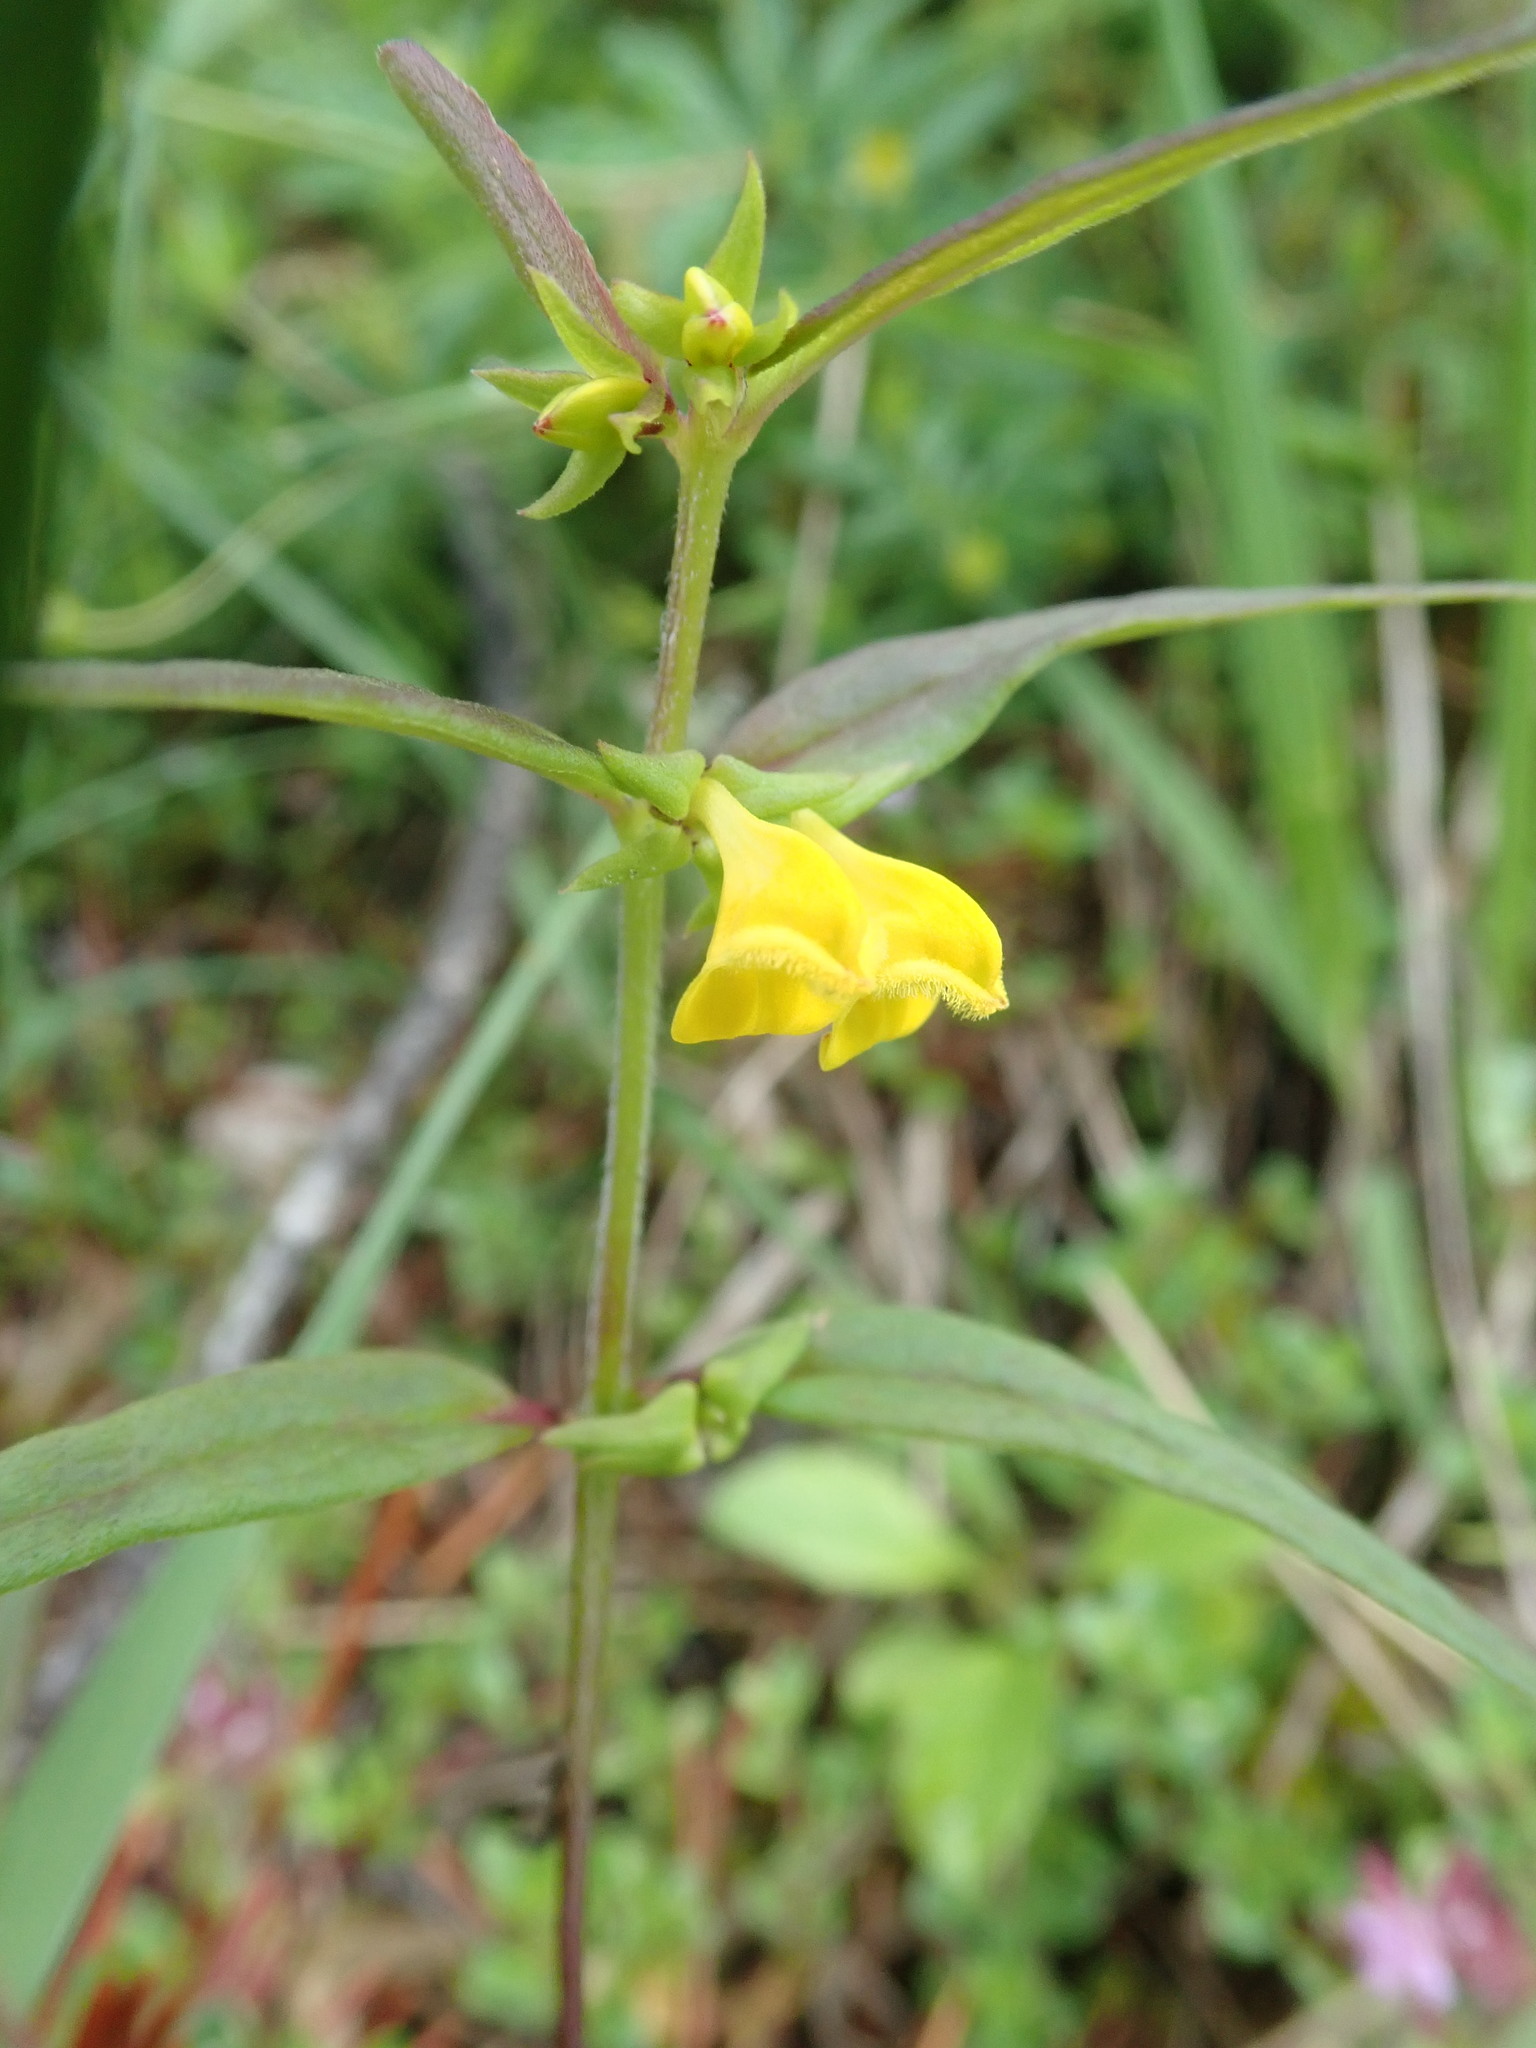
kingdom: Plantae
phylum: Tracheophyta
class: Magnoliopsida
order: Lamiales
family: Orobanchaceae
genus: Melampyrum
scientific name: Melampyrum sylvaticum
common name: Small cow-wheat
